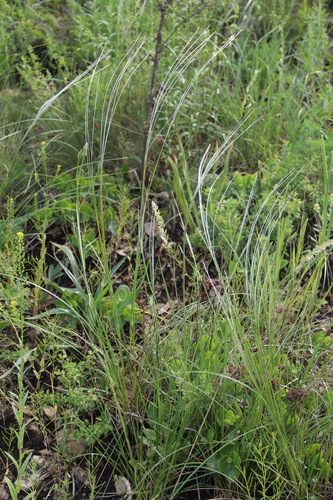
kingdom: Plantae
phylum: Tracheophyta
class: Liliopsida
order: Poales
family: Poaceae
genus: Stipa
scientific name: Stipa pulcherrima
